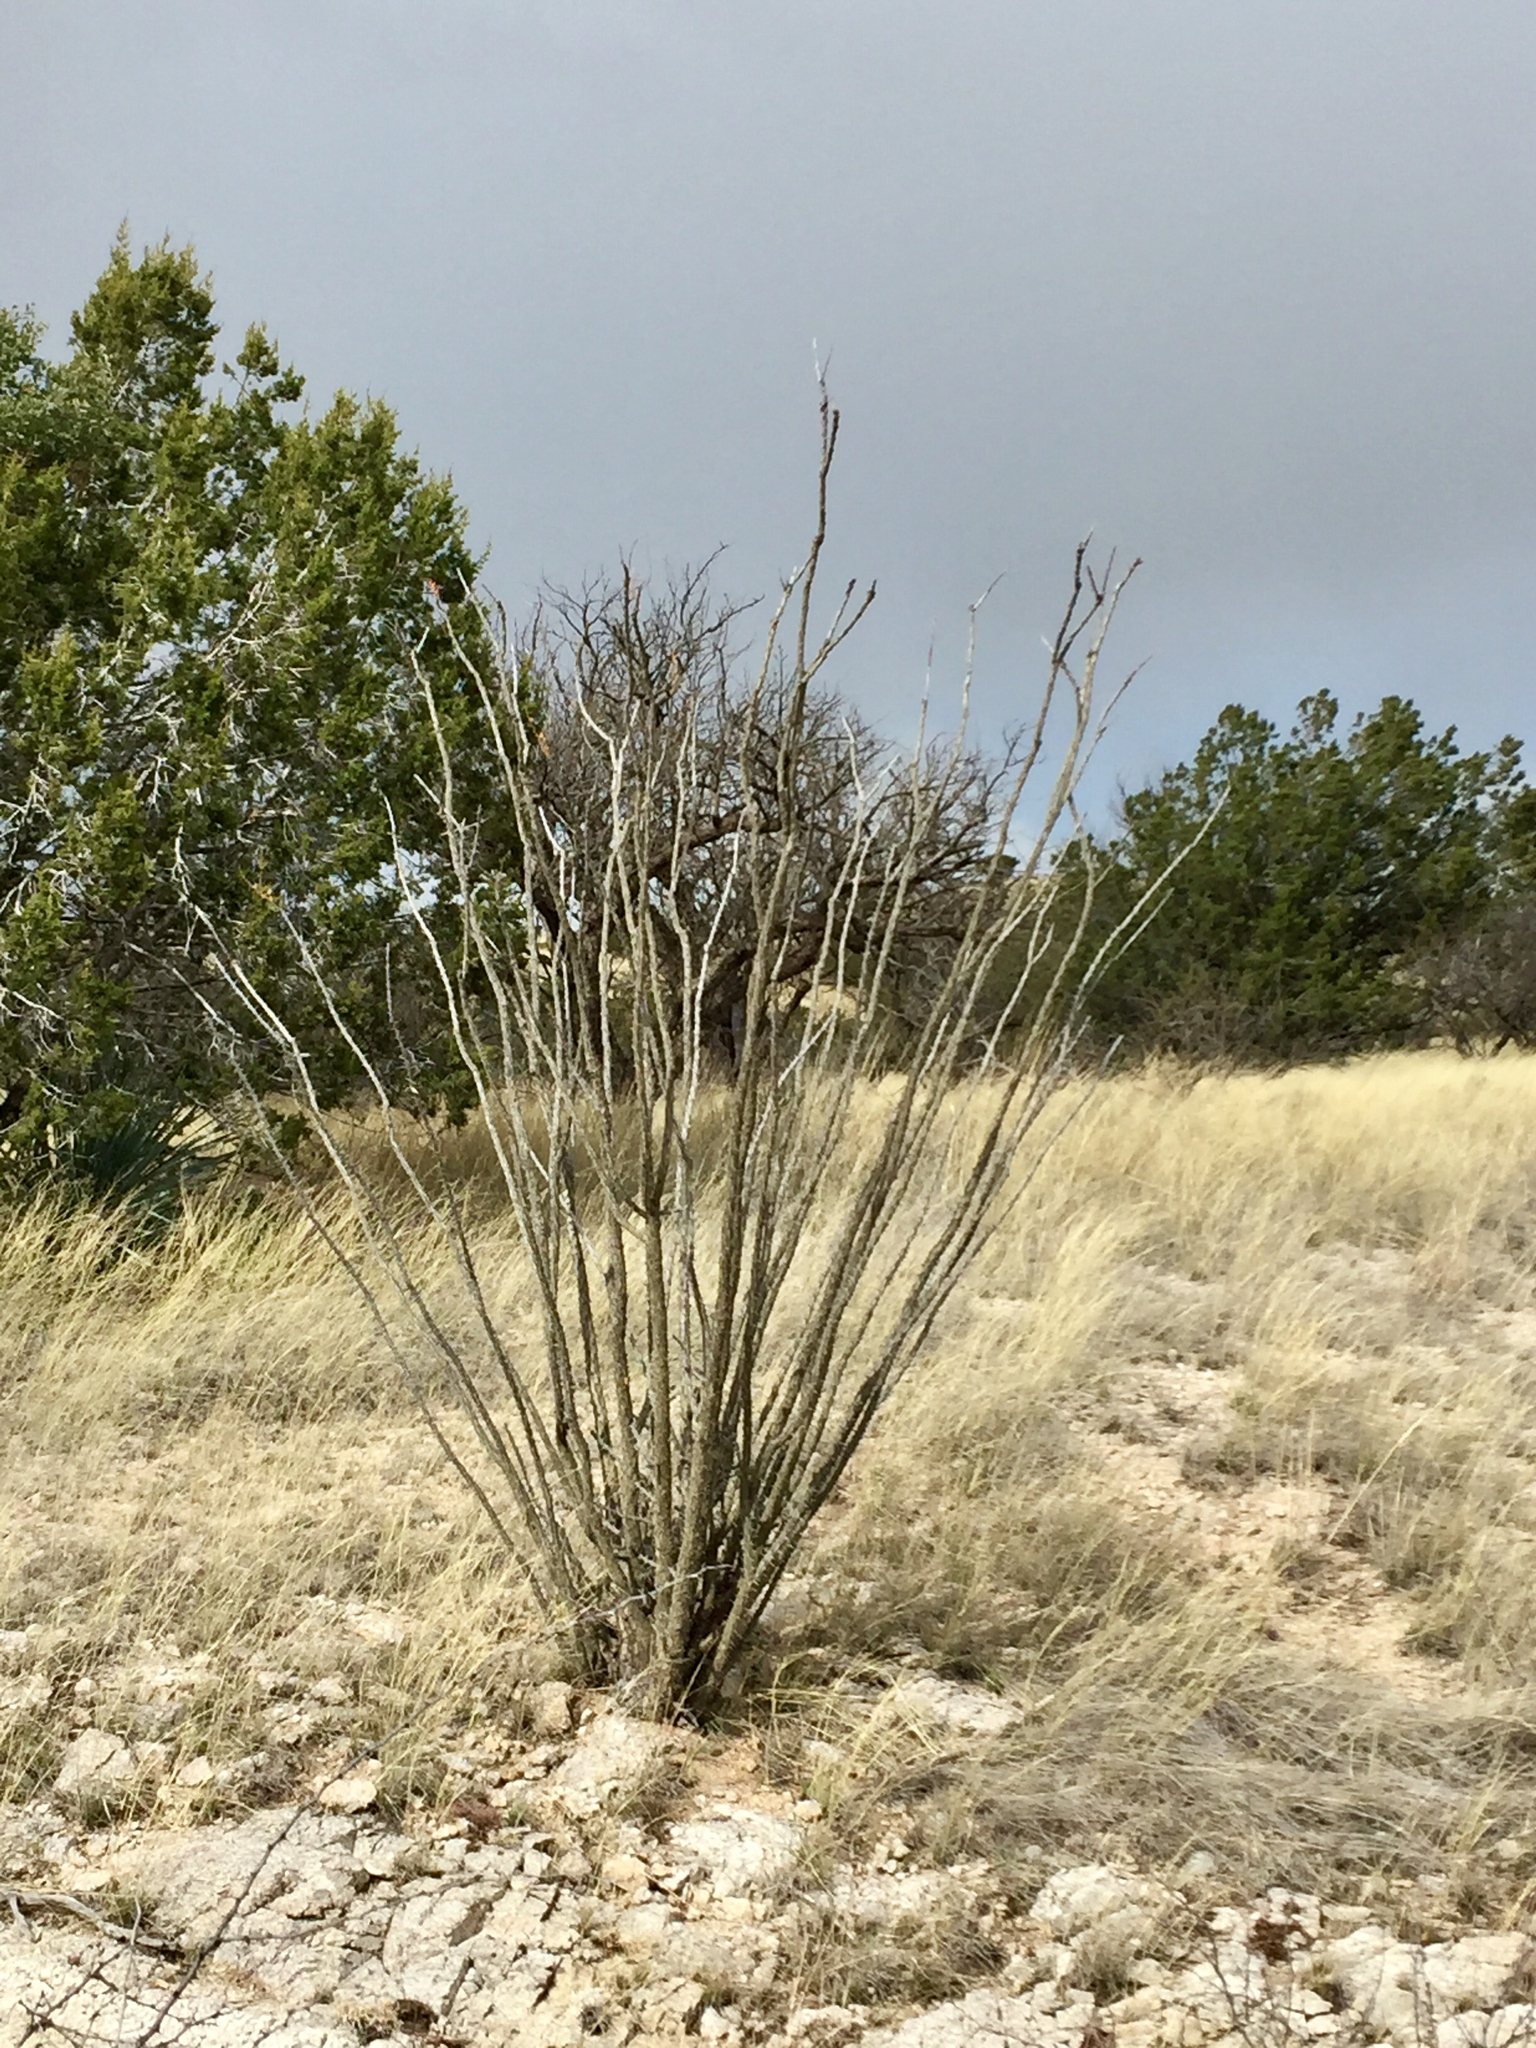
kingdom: Plantae
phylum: Tracheophyta
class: Magnoliopsida
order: Ericales
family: Fouquieriaceae
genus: Fouquieria
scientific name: Fouquieria splendens
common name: Vine-cactus
